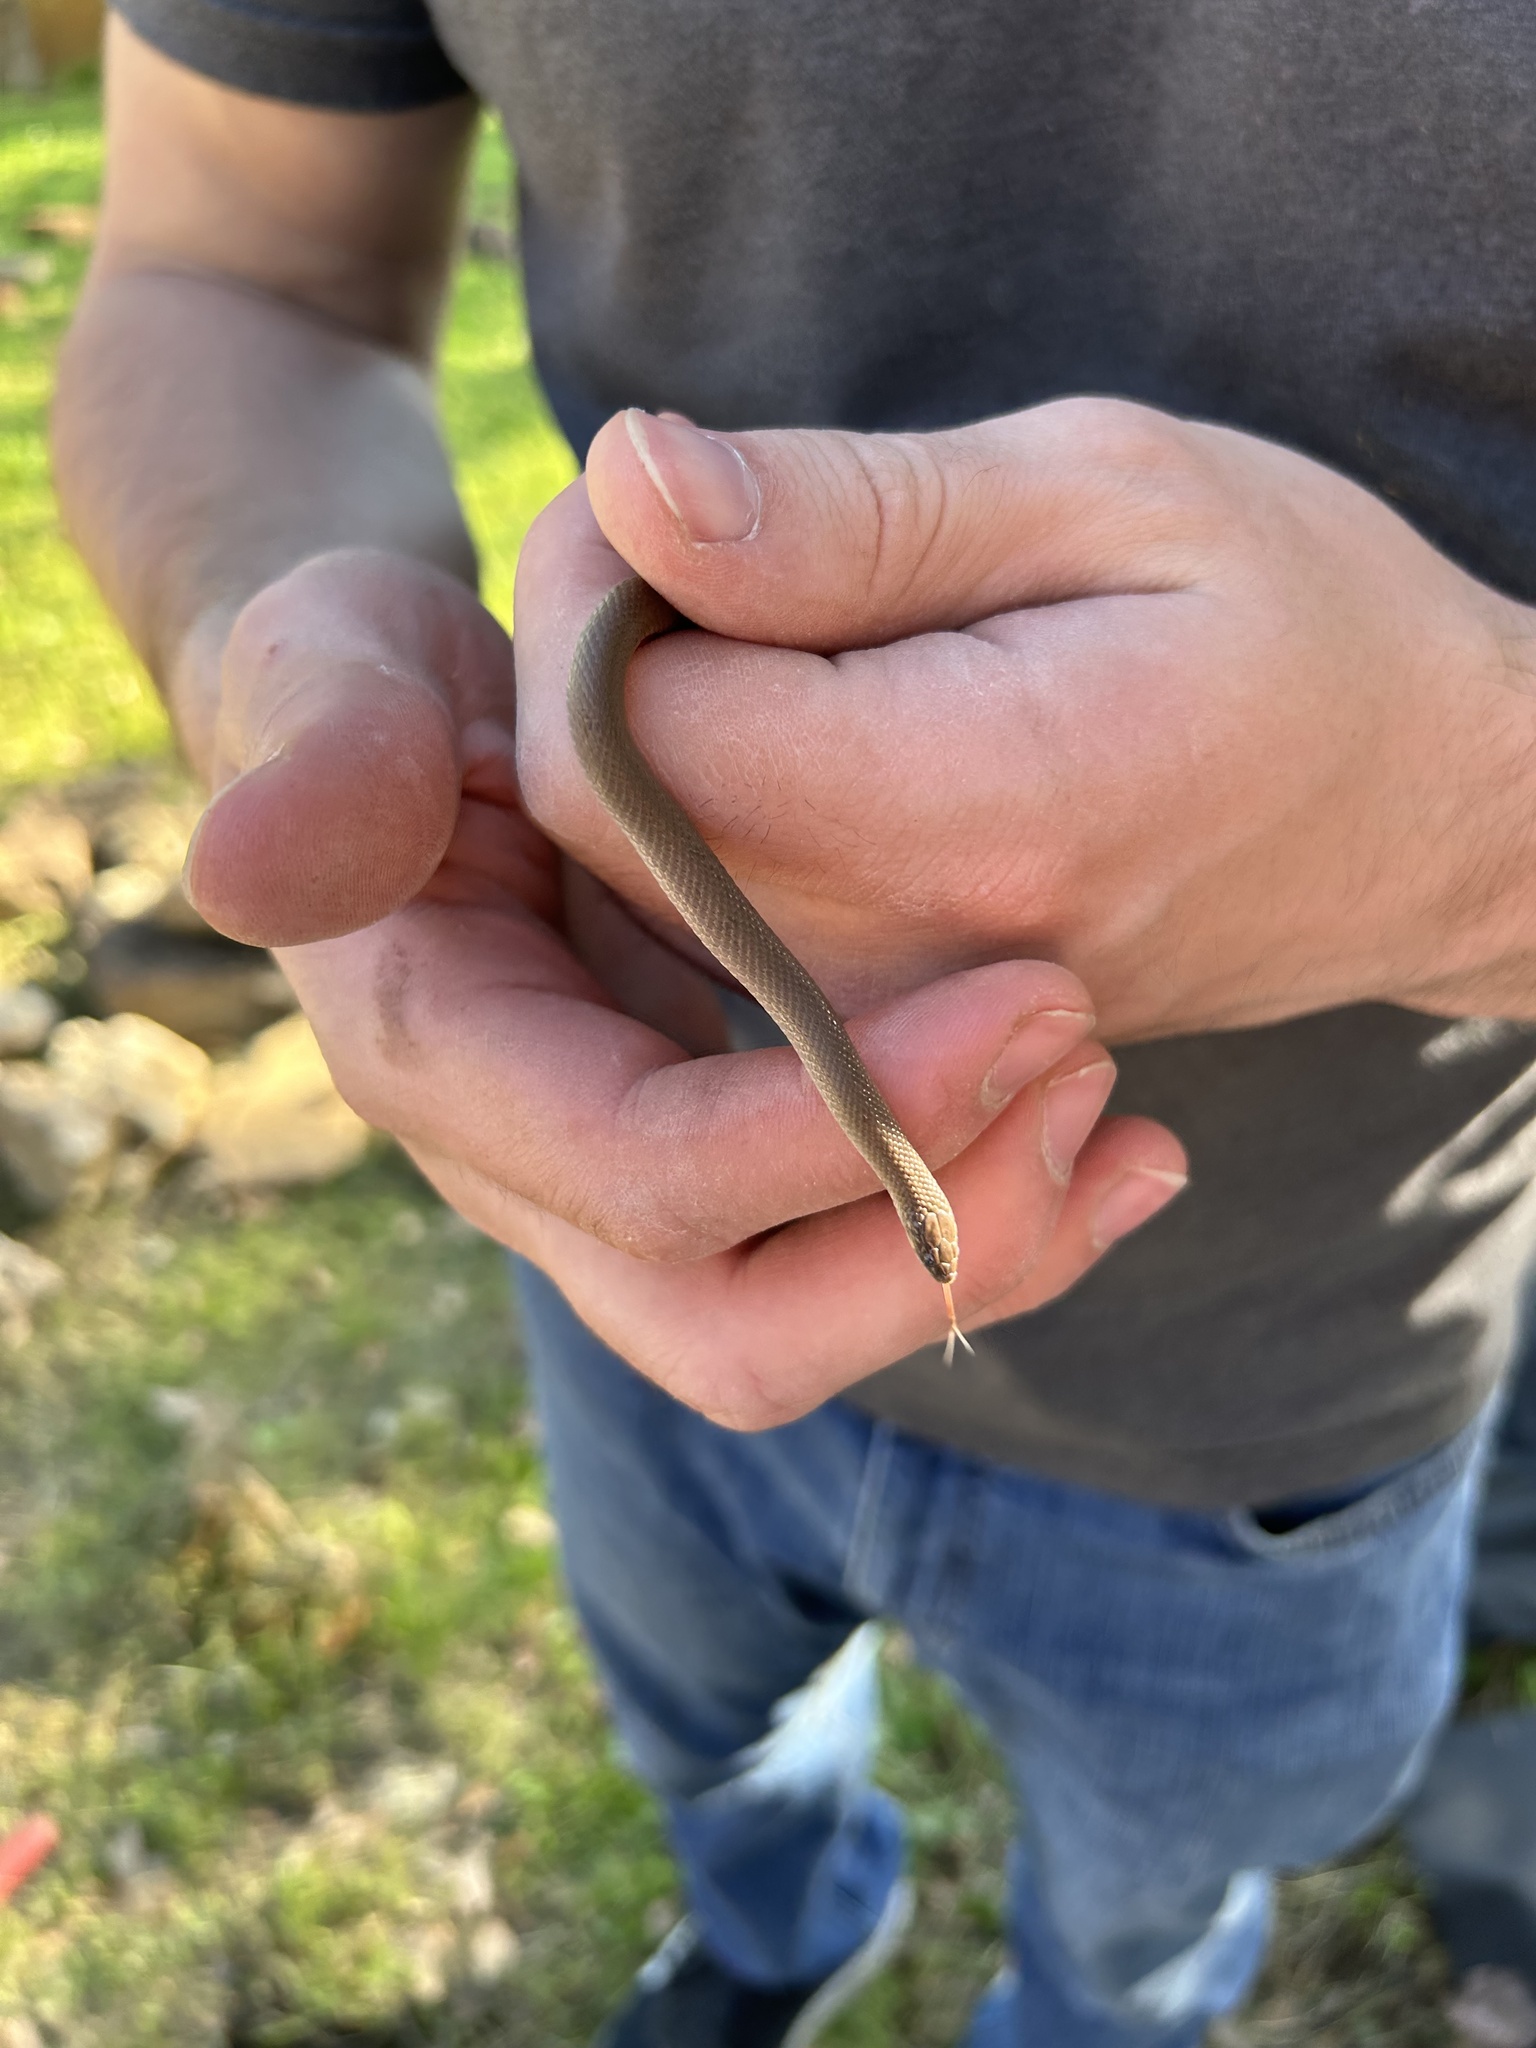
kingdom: Animalia
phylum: Chordata
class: Squamata
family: Colubridae
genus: Haldea
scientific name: Haldea striatula
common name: Rough earth snake
